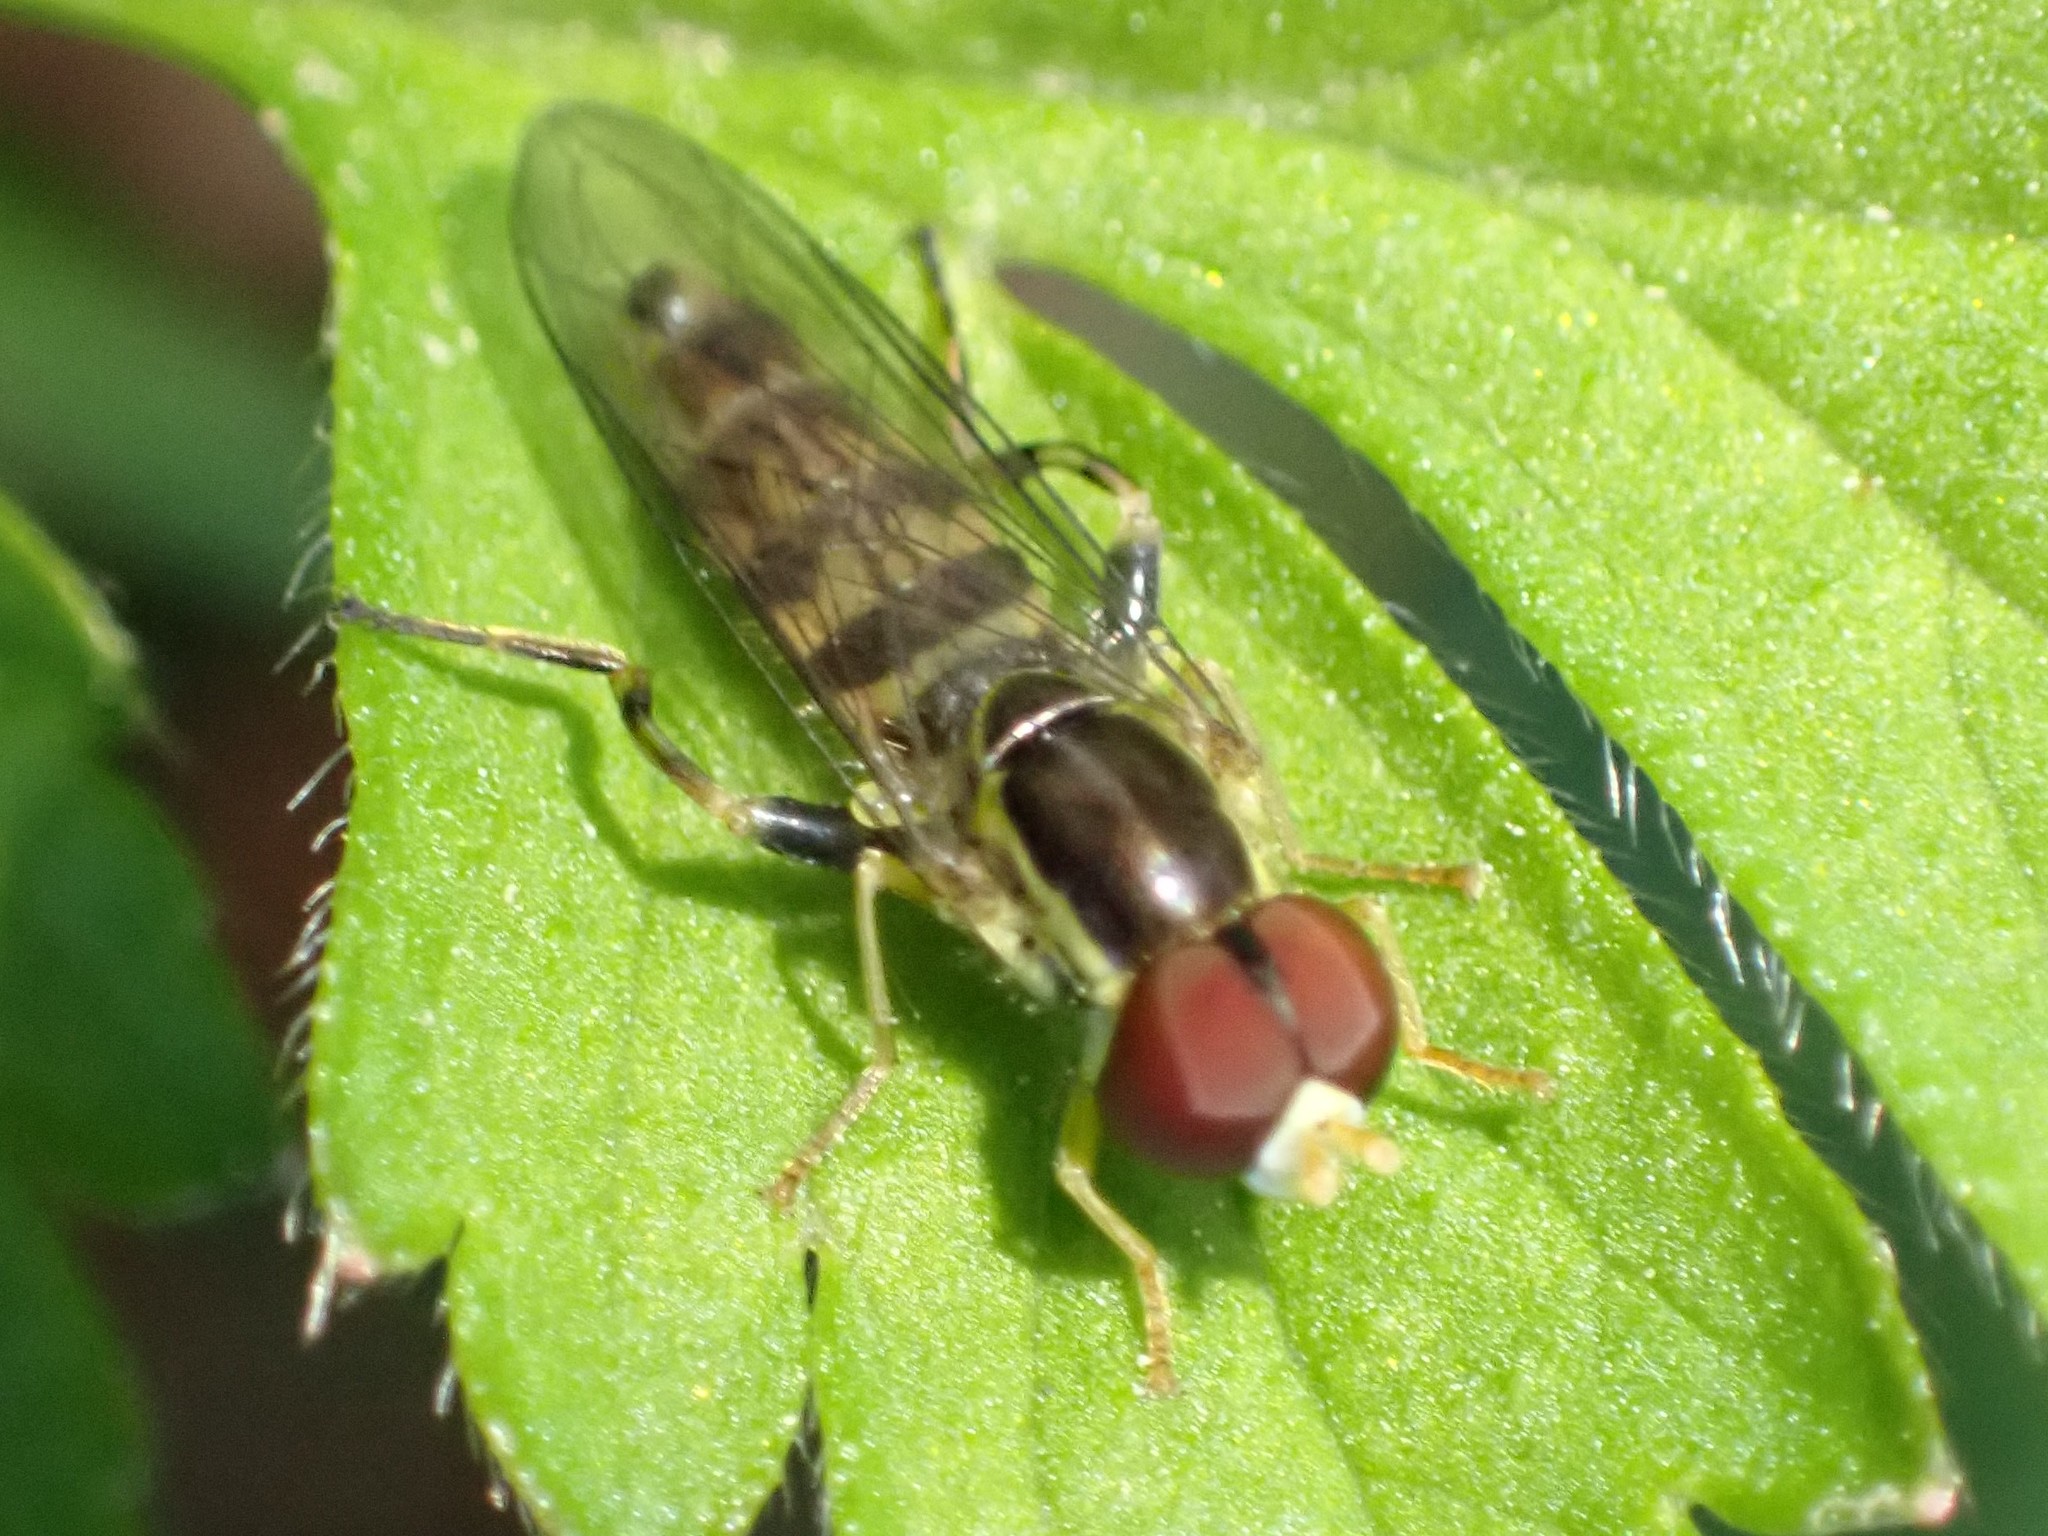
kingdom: Animalia
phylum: Arthropoda
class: Insecta
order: Diptera
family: Syrphidae
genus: Toxomerus
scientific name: Toxomerus geminatus
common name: Eastern calligrapher
